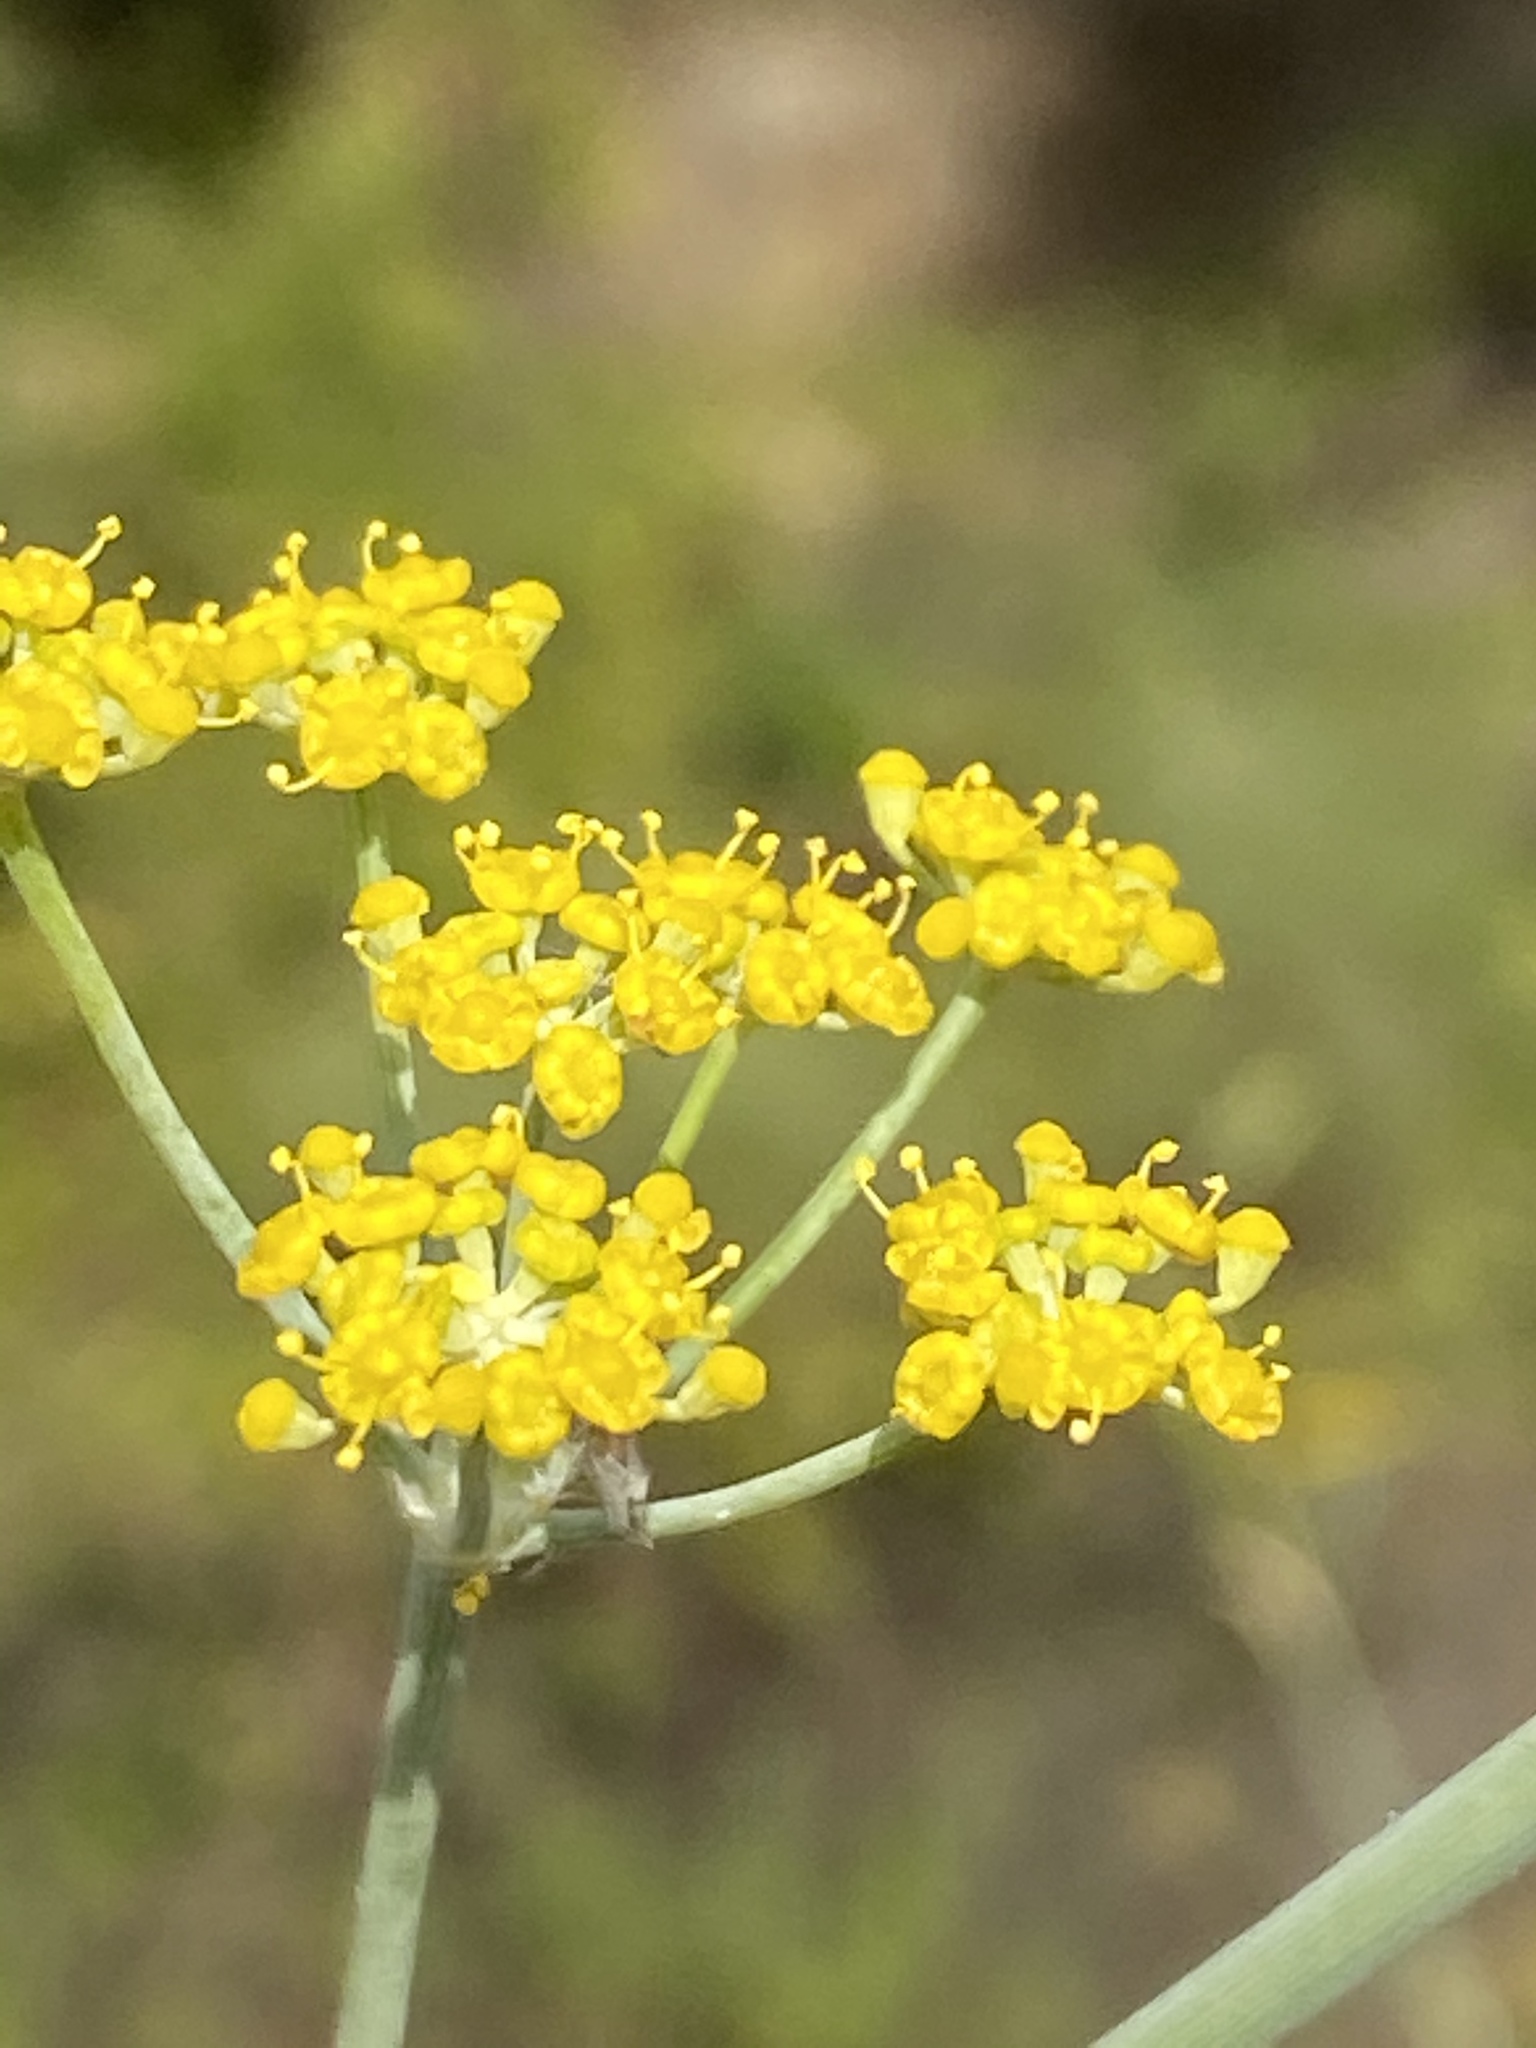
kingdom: Plantae
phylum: Tracheophyta
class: Magnoliopsida
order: Apiales
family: Apiaceae
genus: Foeniculum
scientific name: Foeniculum vulgare
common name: Fennel
